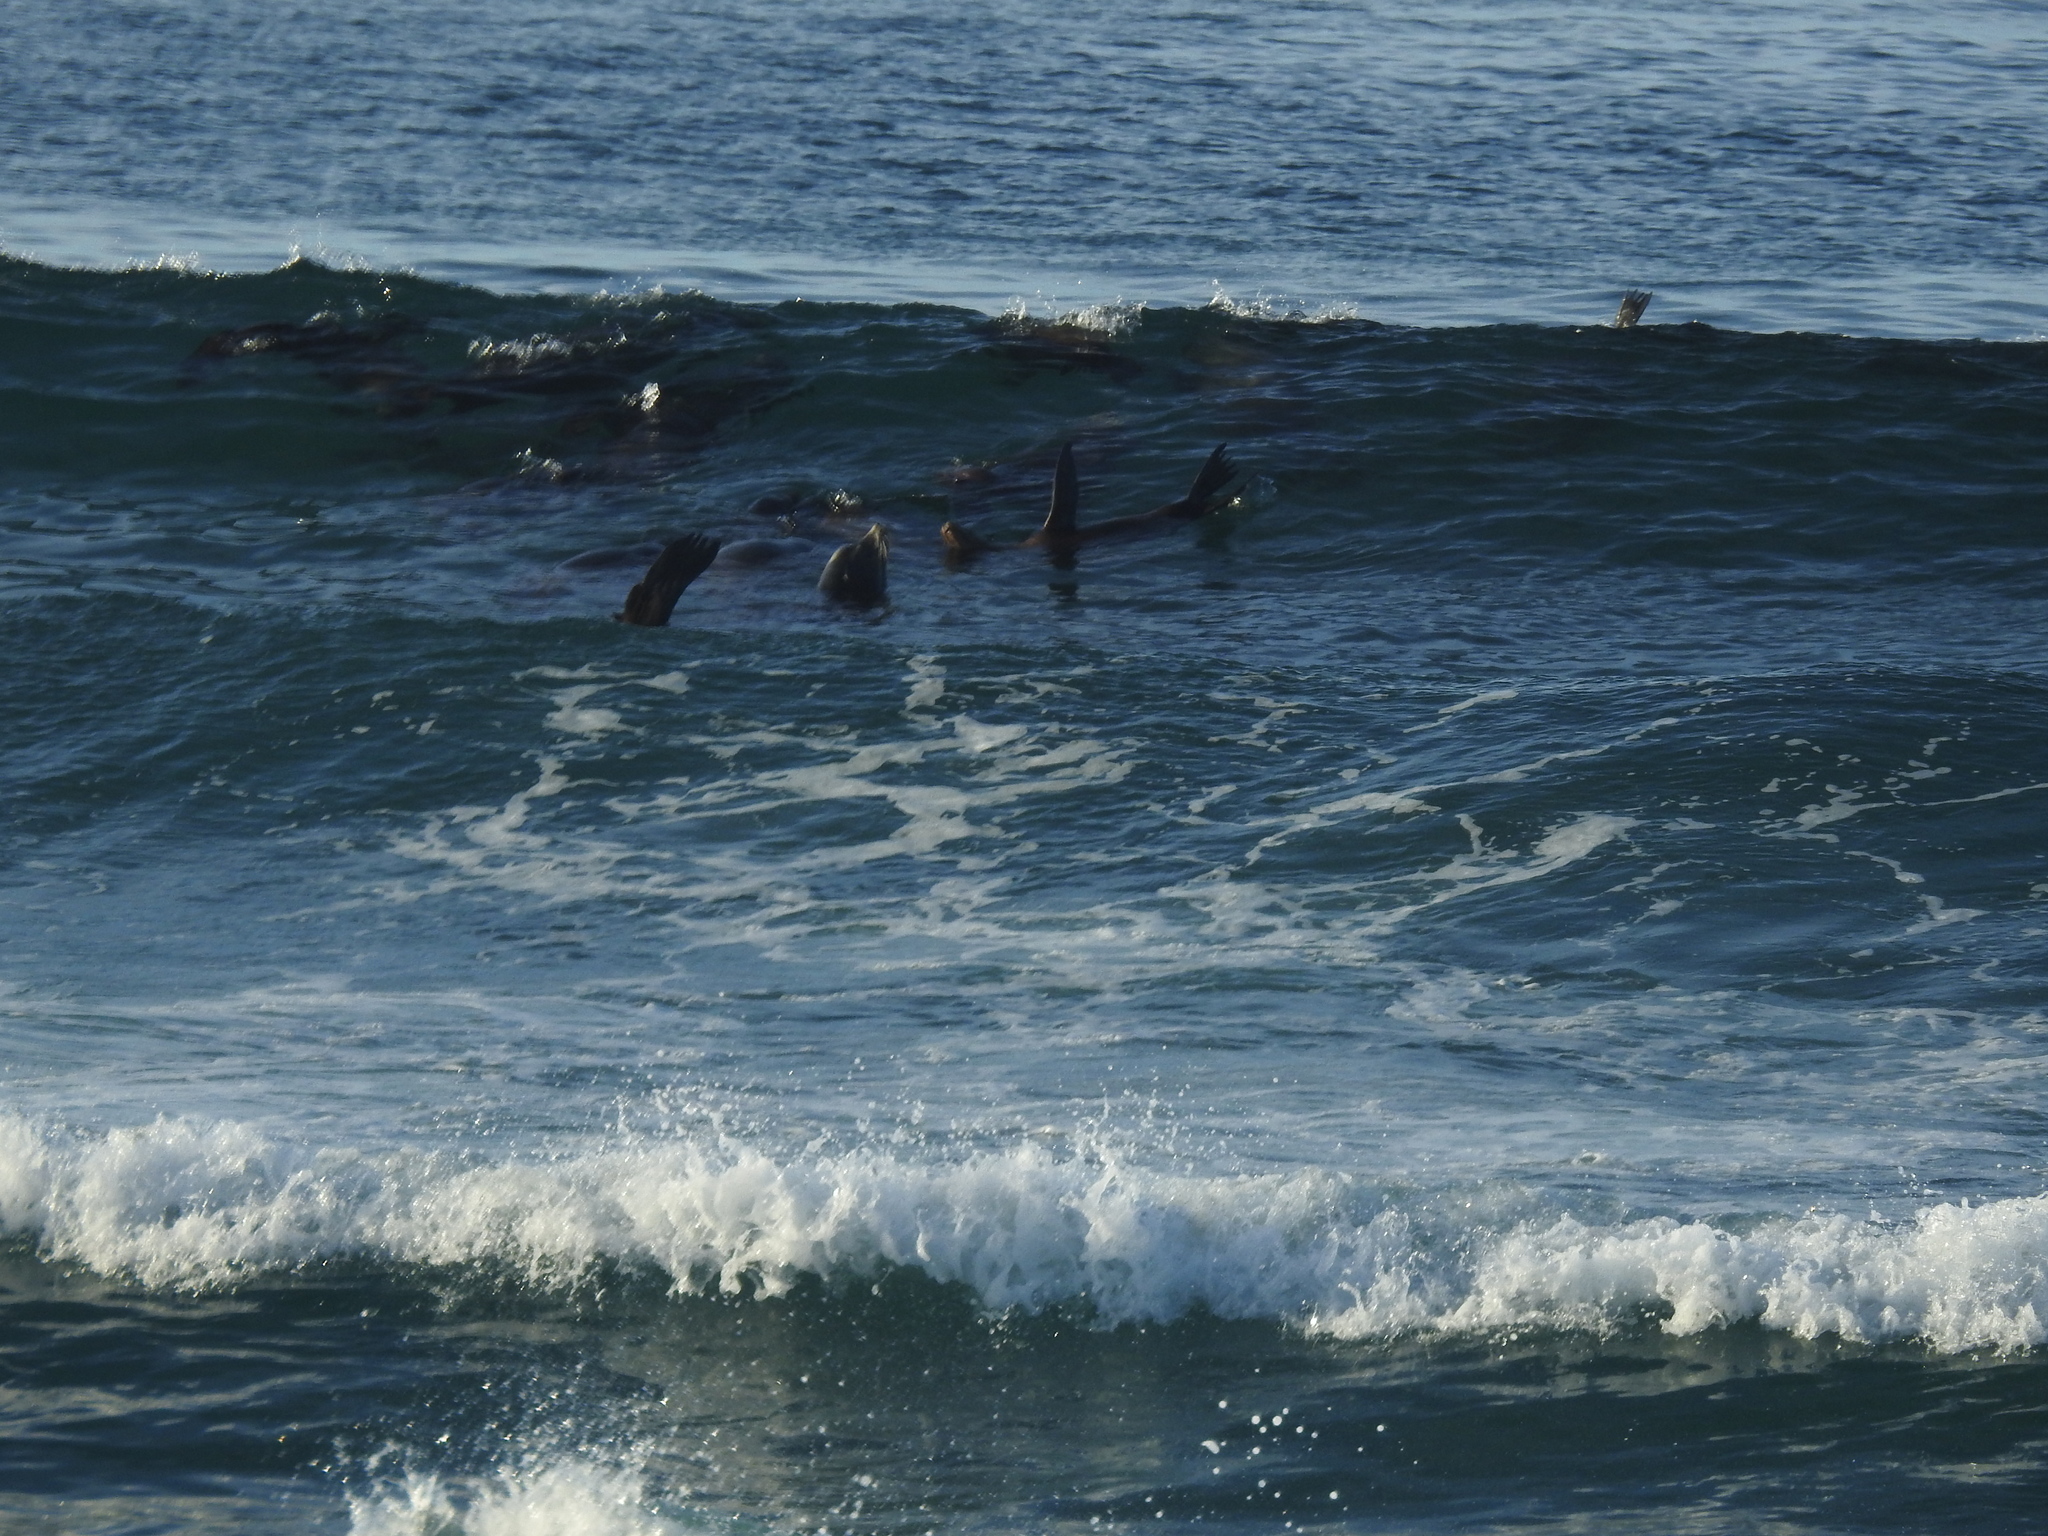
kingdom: Animalia
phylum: Chordata
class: Mammalia
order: Carnivora
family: Otariidae
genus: Zalophus
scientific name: Zalophus californianus
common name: California sea lion
